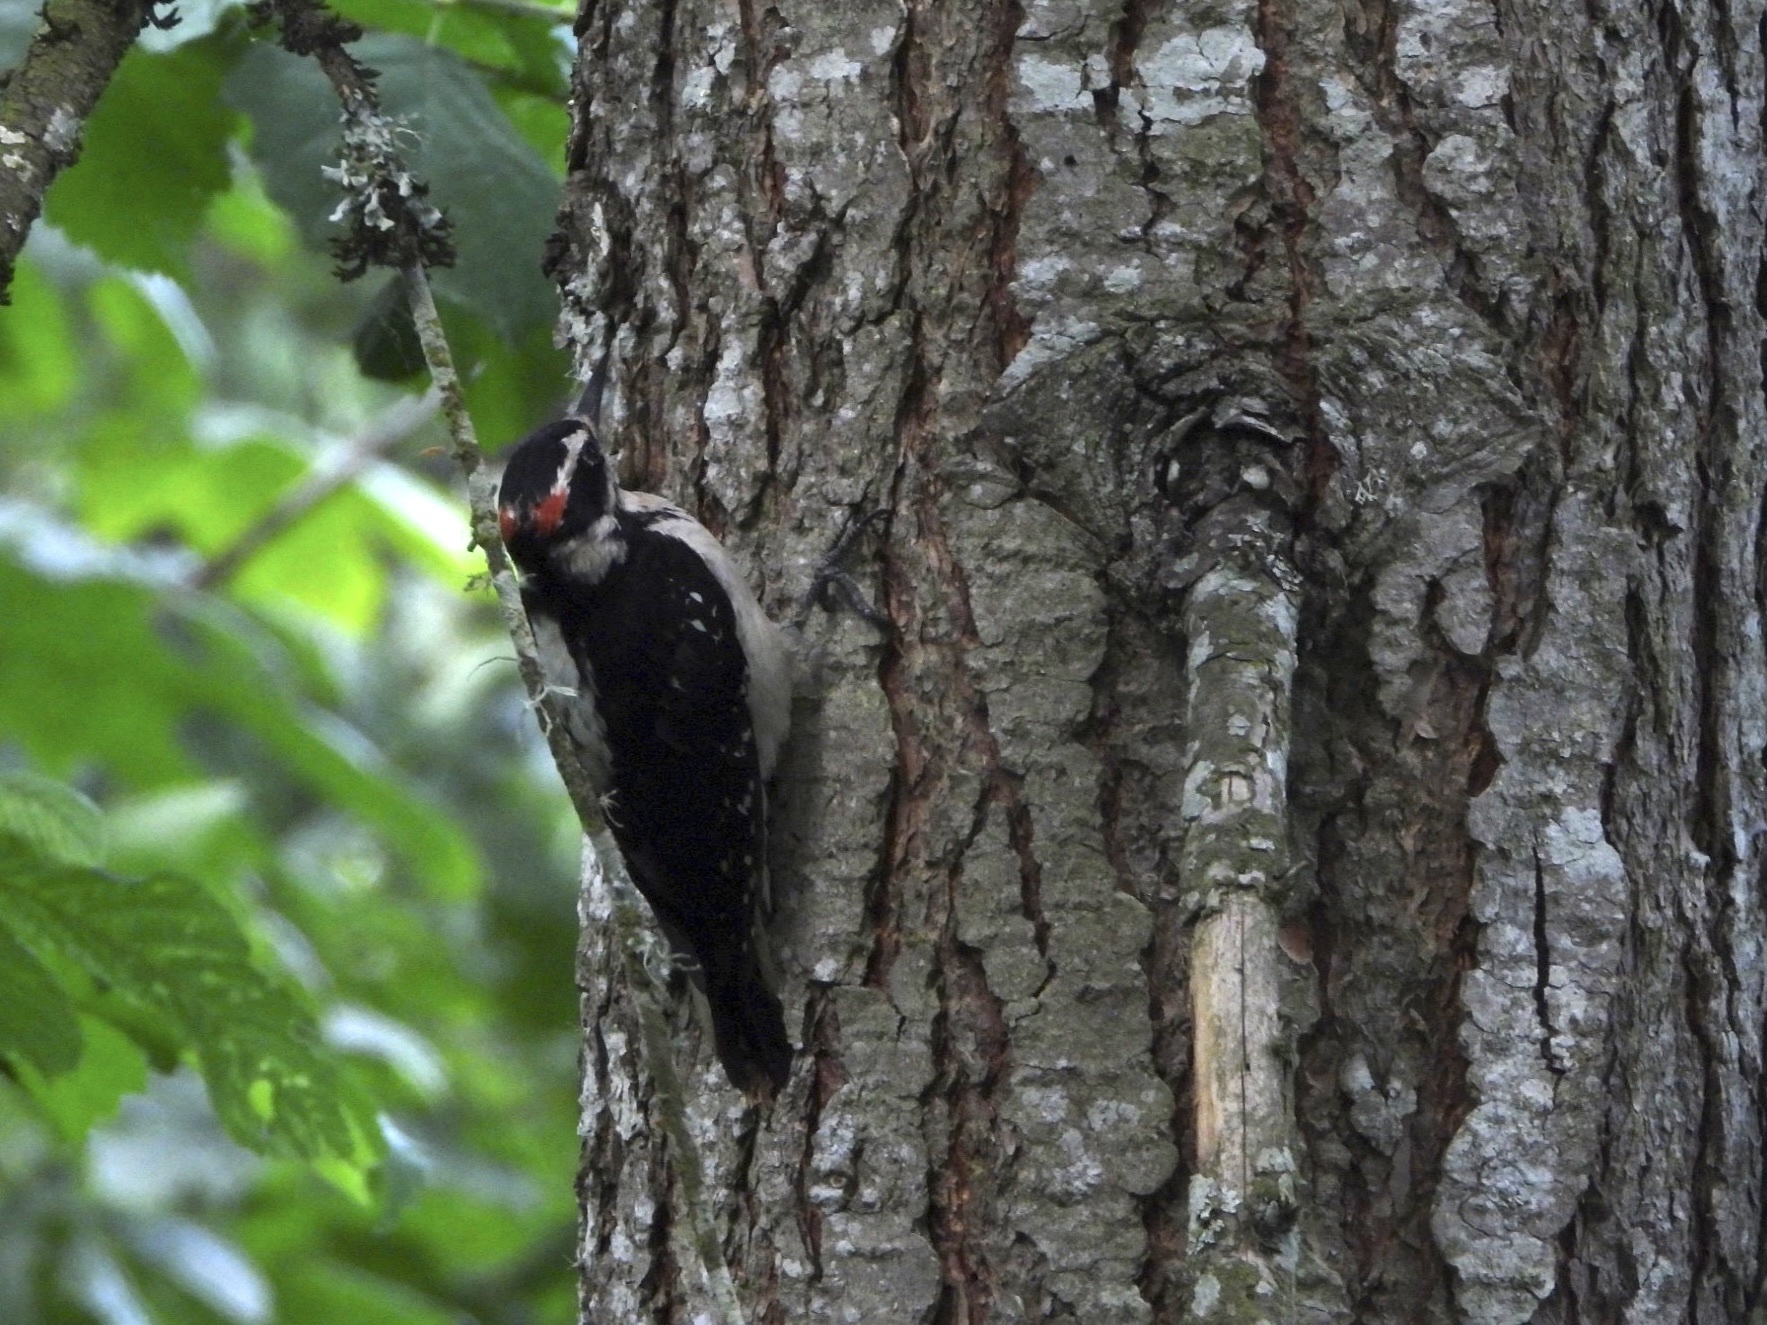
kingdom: Animalia
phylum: Chordata
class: Aves
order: Piciformes
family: Picidae
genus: Leuconotopicus
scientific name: Leuconotopicus villosus
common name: Hairy woodpecker
